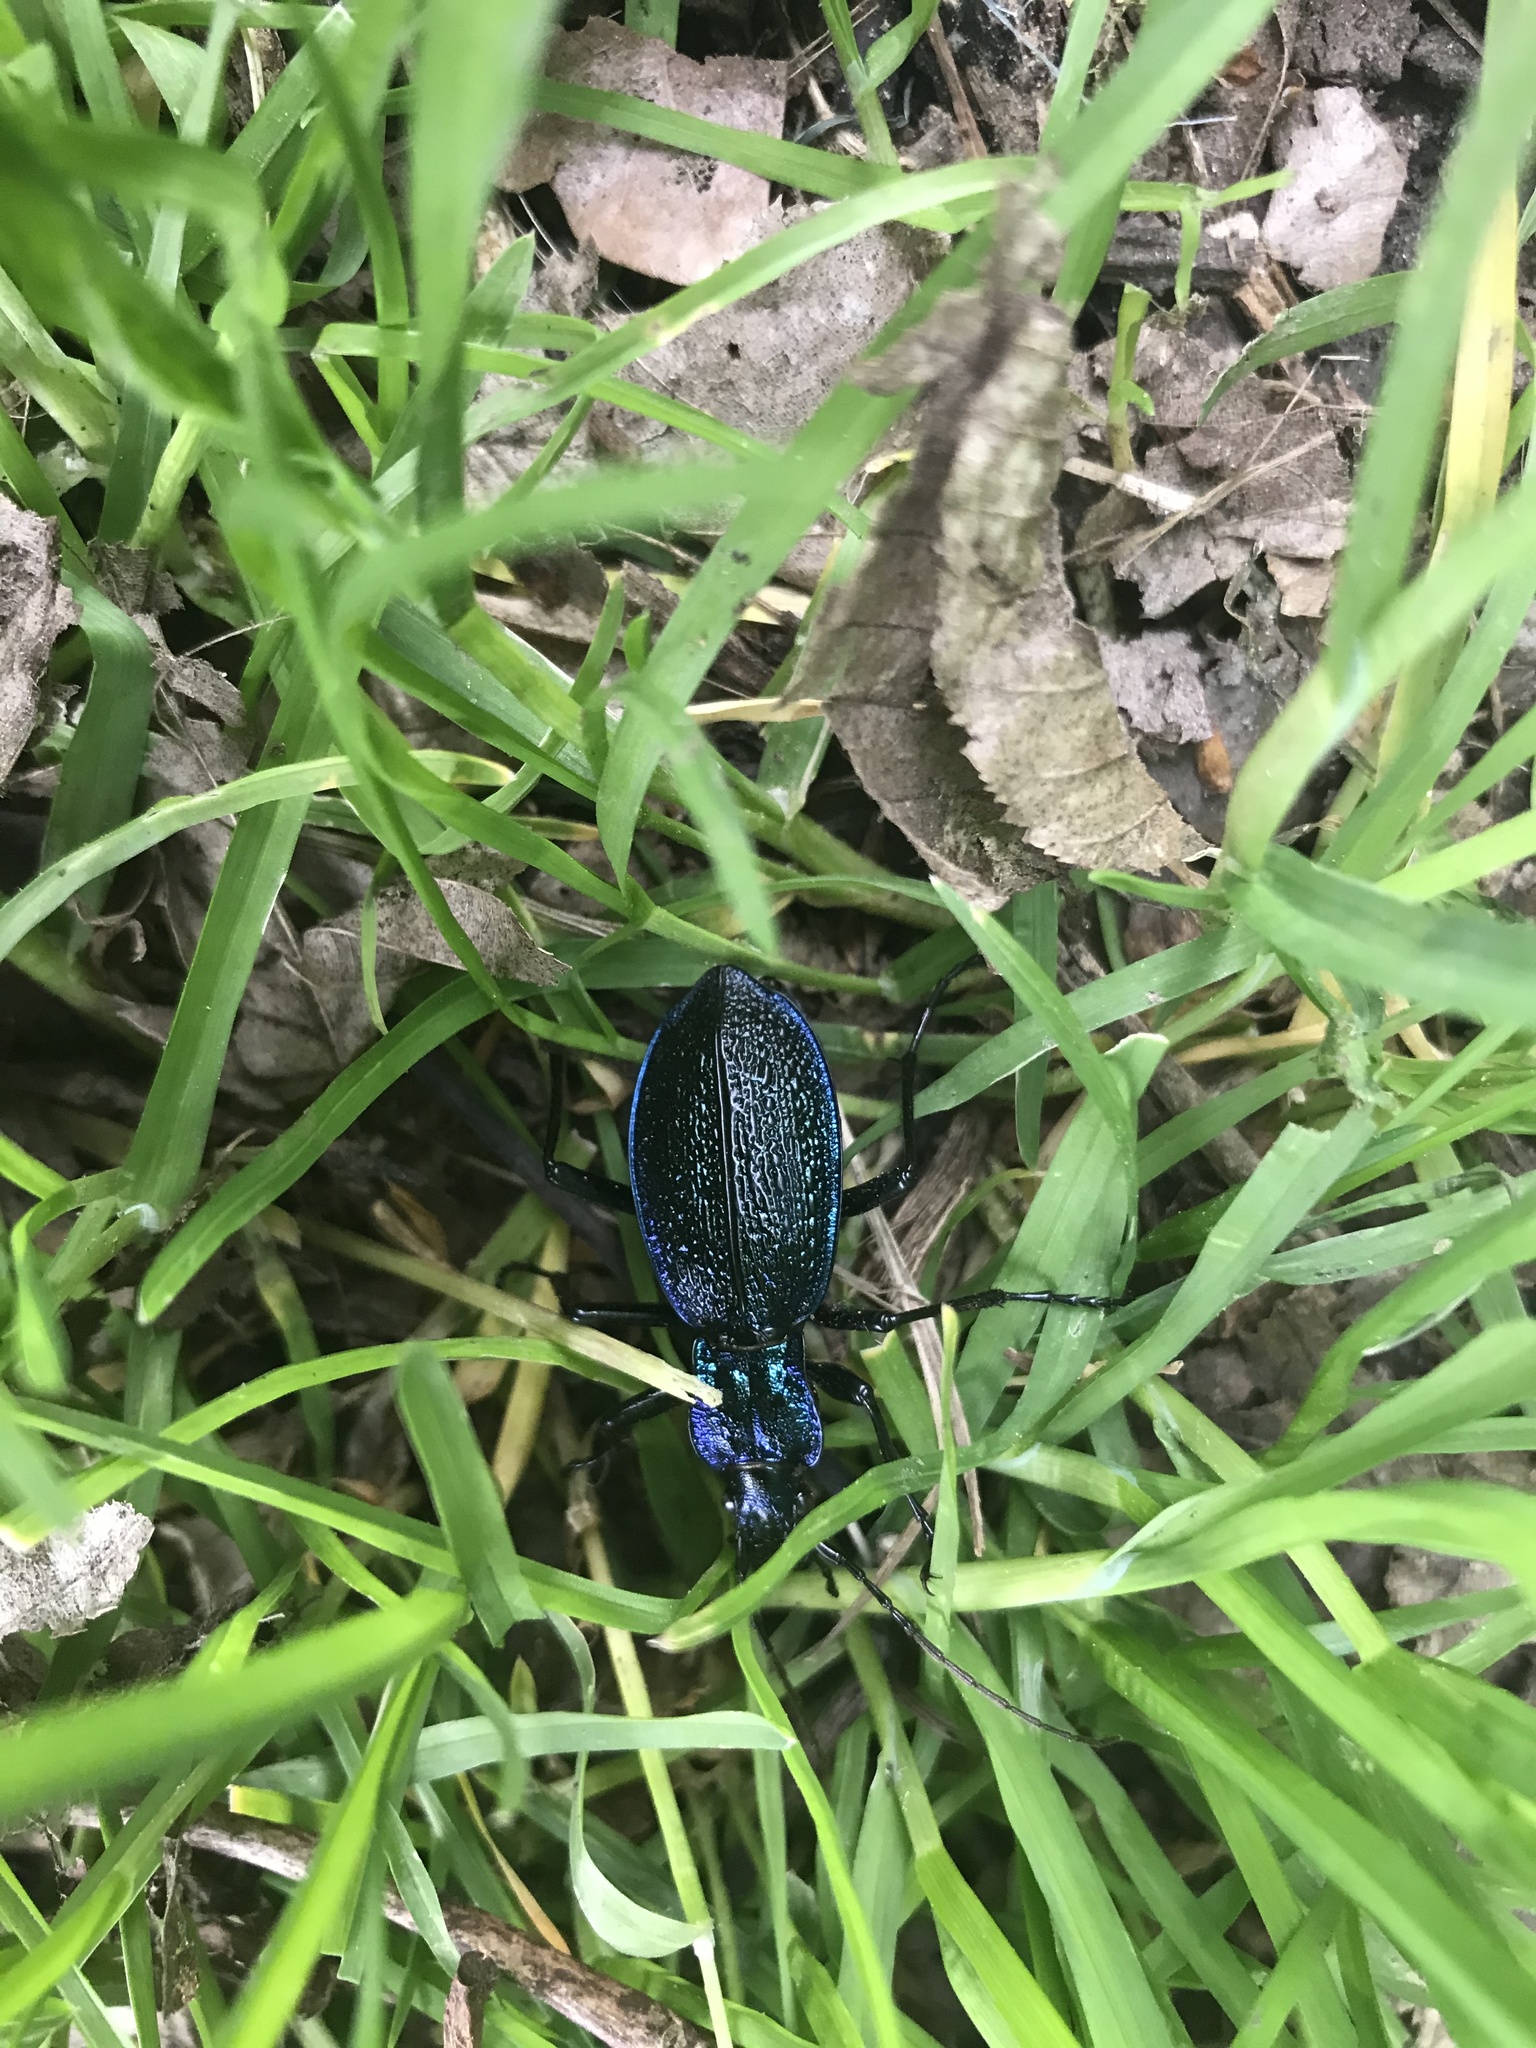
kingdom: Animalia
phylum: Arthropoda
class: Insecta
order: Coleoptera
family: Carabidae
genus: Carabus
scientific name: Carabus intricatus
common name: Blue ground beetle
